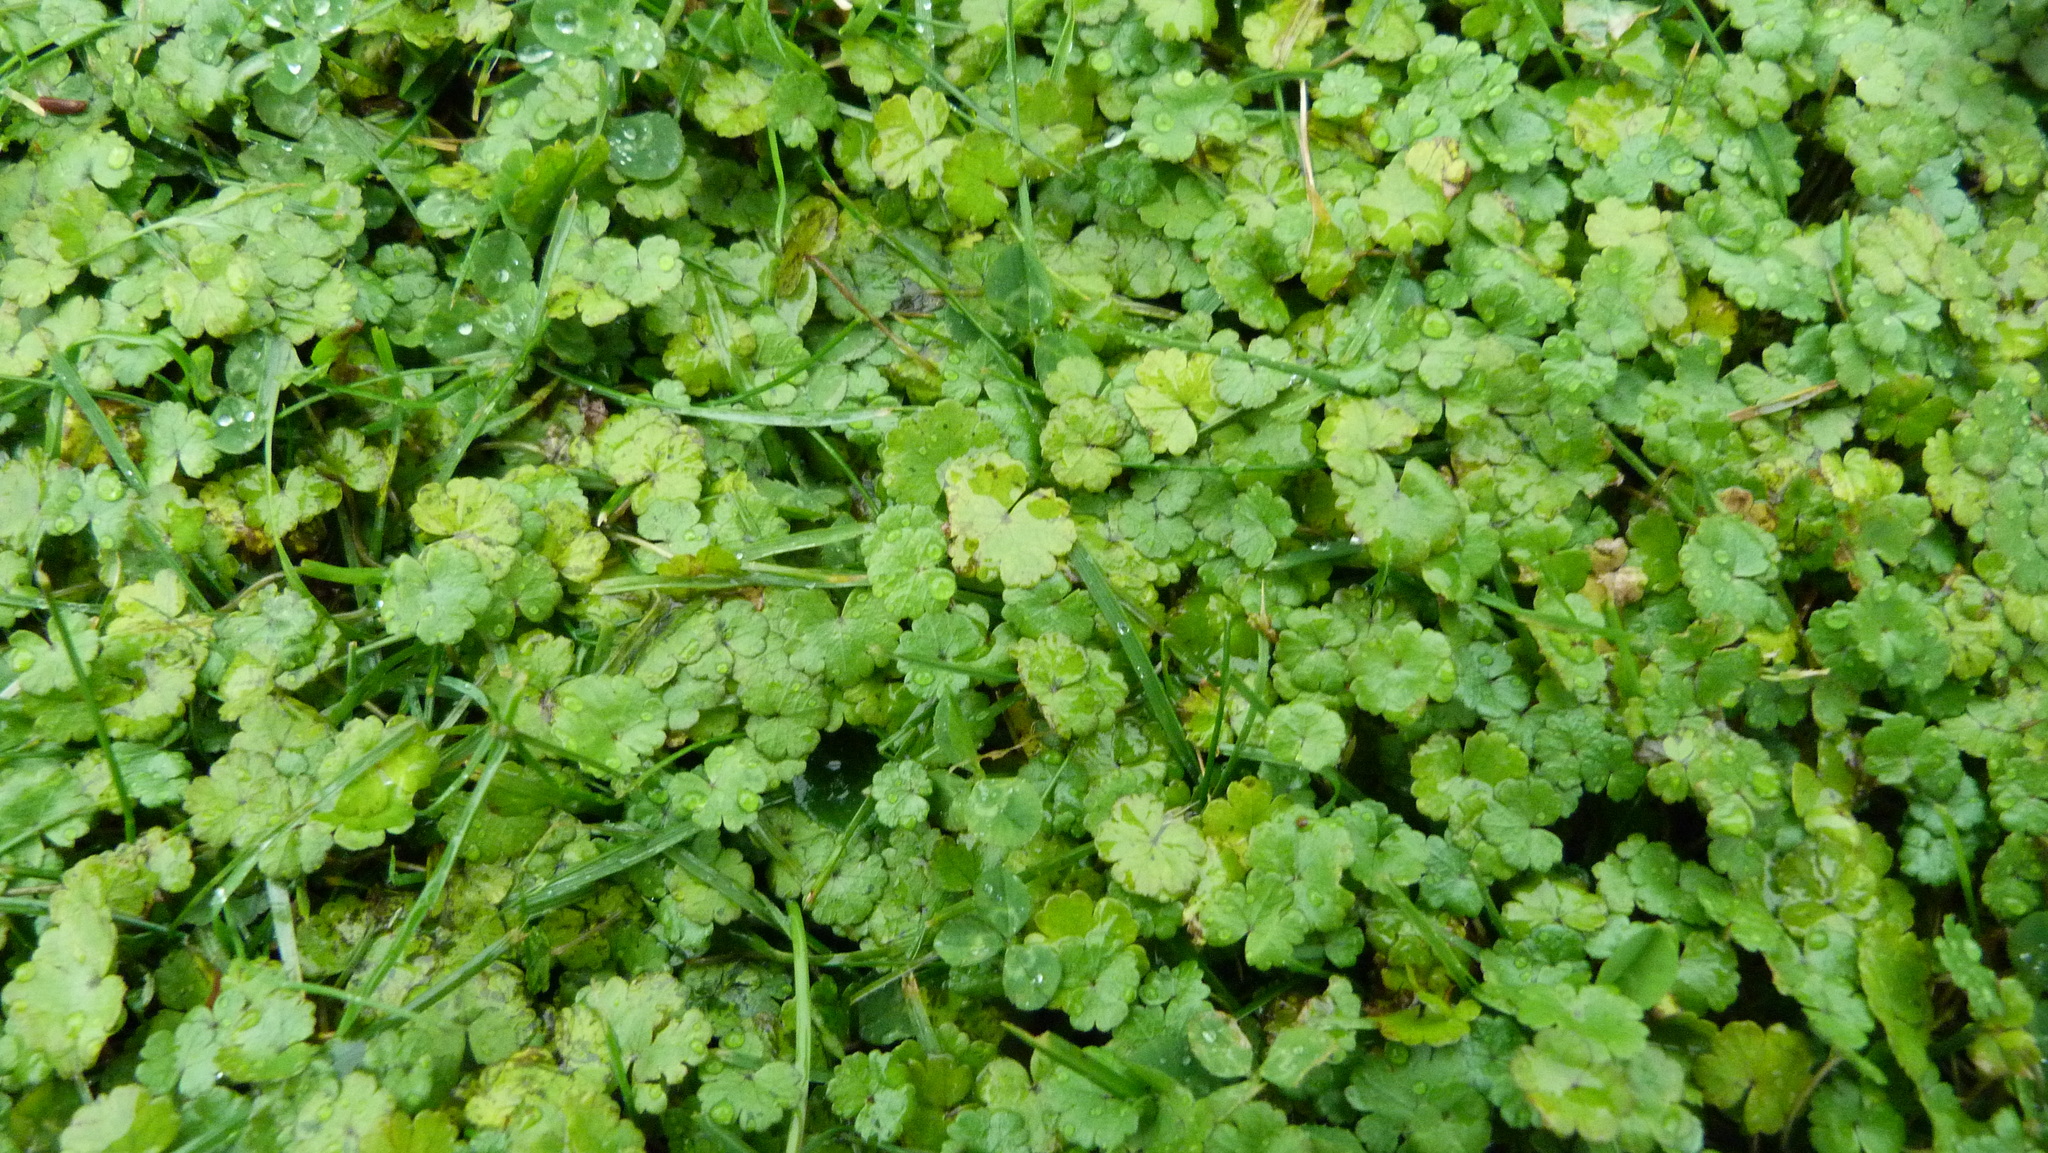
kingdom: Plantae
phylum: Tracheophyta
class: Magnoliopsida
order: Apiales
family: Araliaceae
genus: Hydrocotyle
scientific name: Hydrocotyle microphylla
